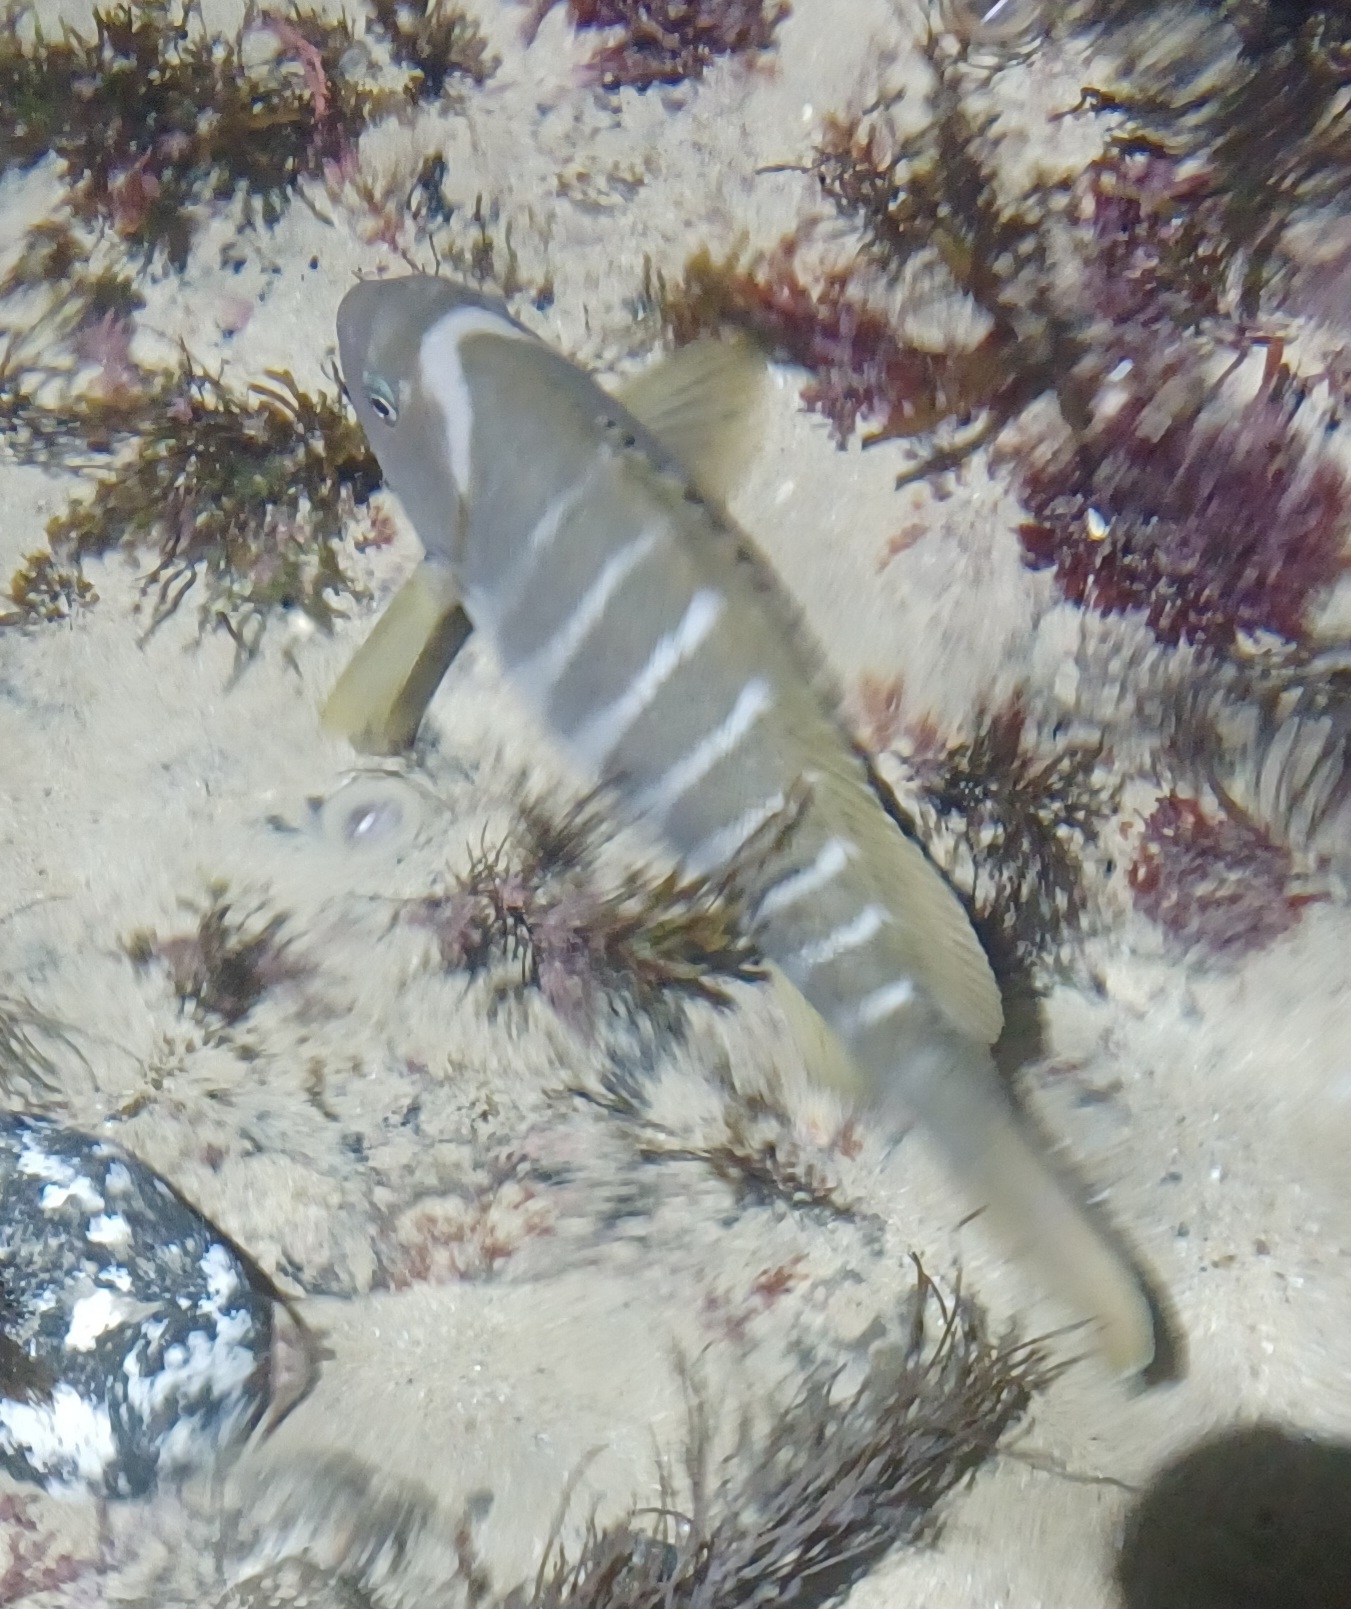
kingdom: Animalia
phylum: Chordata
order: Perciformes
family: Kyphosidae
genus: Girella
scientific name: Girella zebra
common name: Stripey bream
